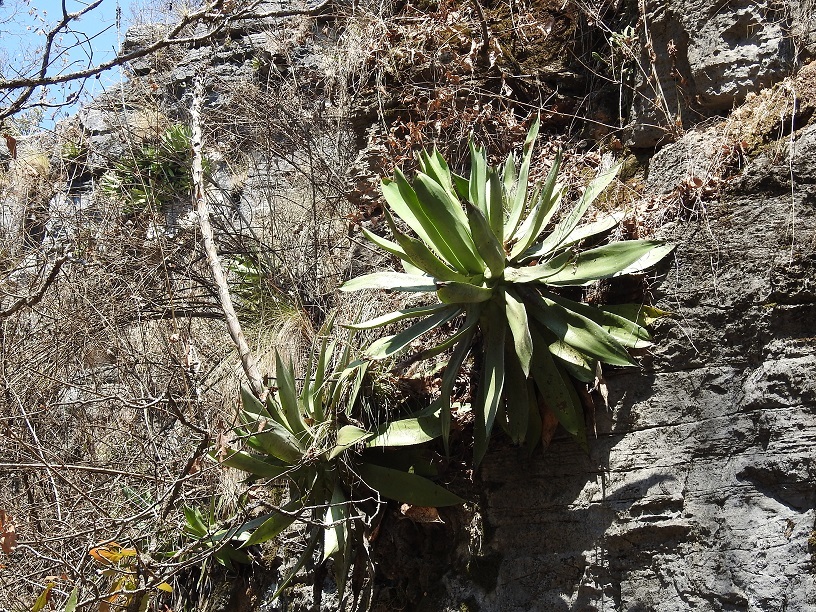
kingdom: Plantae
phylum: Tracheophyta
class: Liliopsida
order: Asparagales
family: Asparagaceae
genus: Agave
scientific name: Agave kewensis
